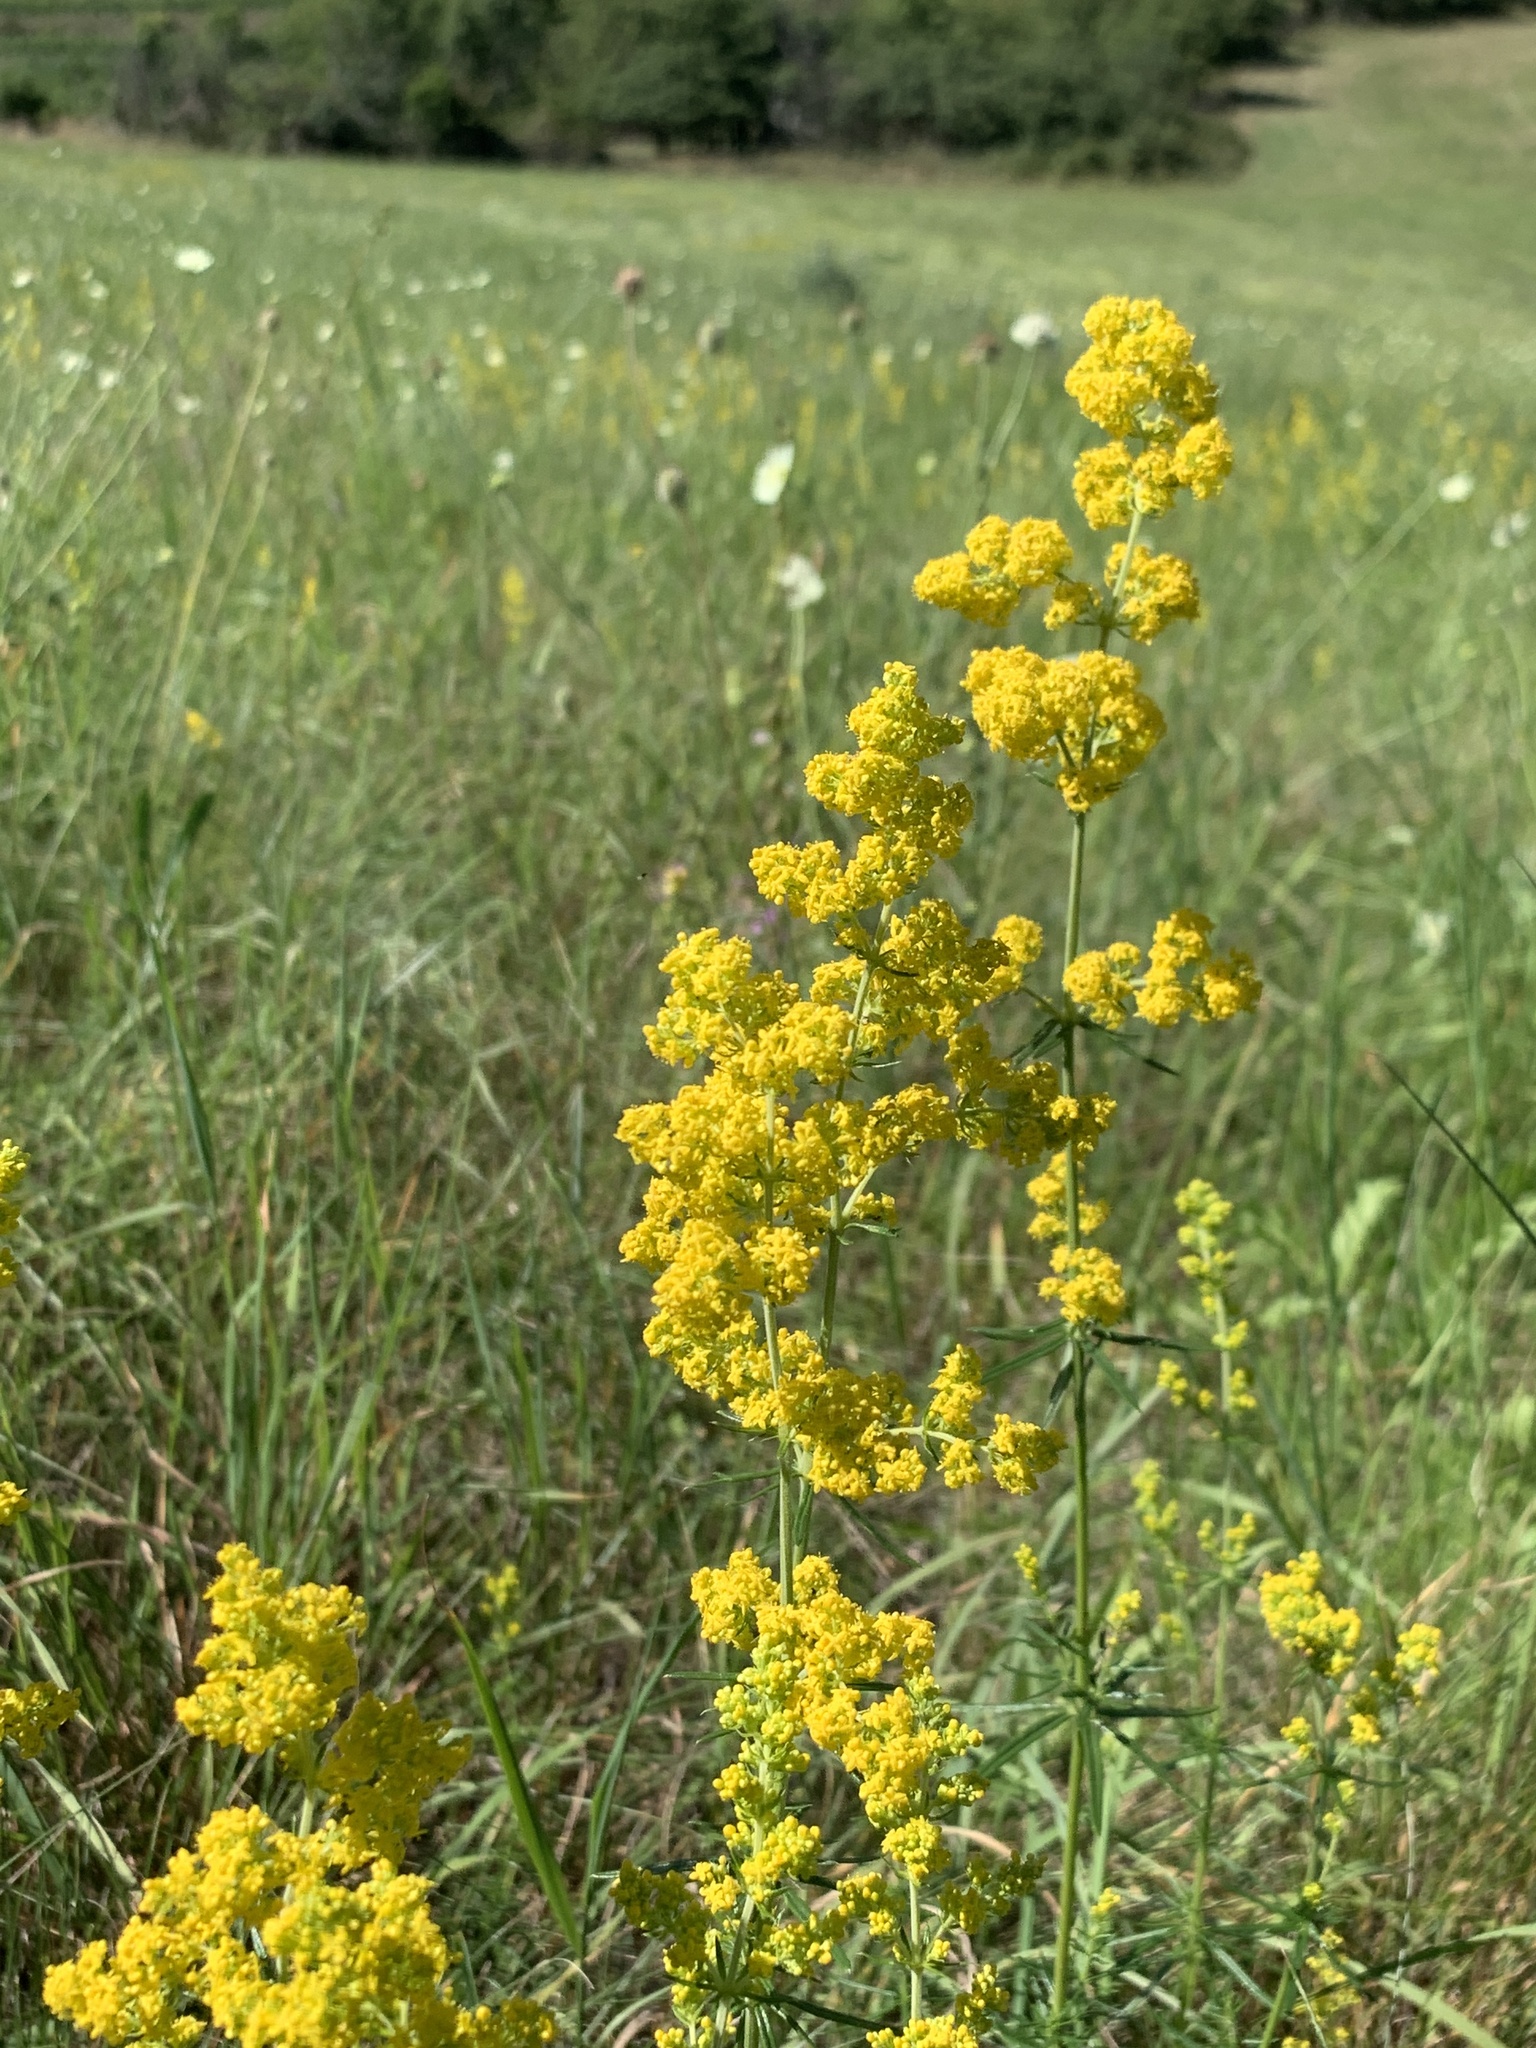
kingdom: Plantae
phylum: Tracheophyta
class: Magnoliopsida
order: Gentianales
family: Rubiaceae
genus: Galium
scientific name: Galium verum
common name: Lady's bedstraw
